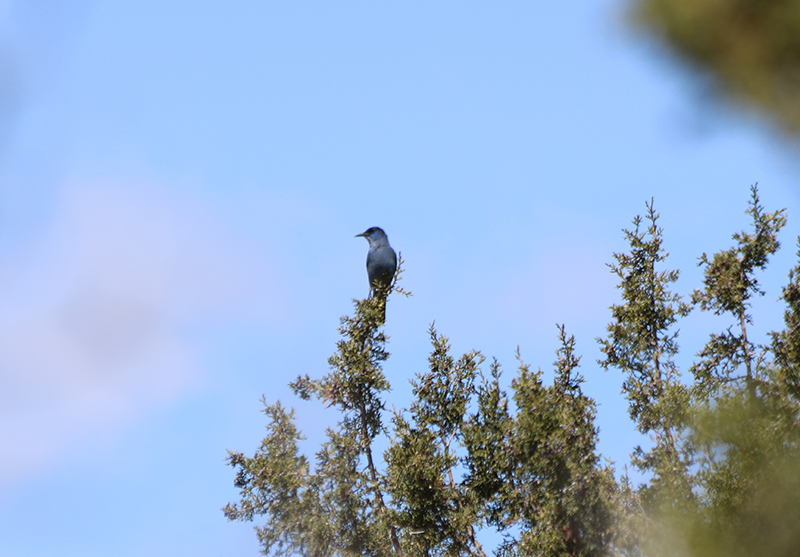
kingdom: Animalia
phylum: Chordata
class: Aves
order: Passeriformes
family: Corvidae
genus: Gymnorhinus
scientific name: Gymnorhinus cyanocephalus
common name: Pinyon jay
